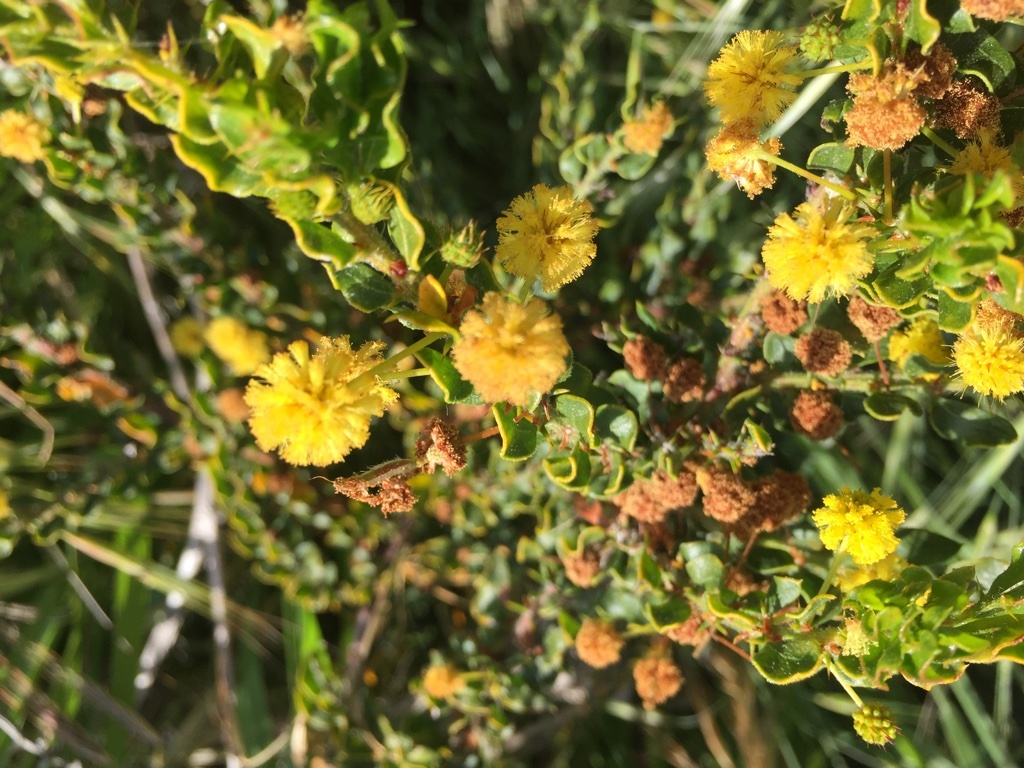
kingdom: Plantae
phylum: Tracheophyta
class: Magnoliopsida
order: Fabales
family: Fabaceae
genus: Acacia
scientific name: Acacia paradoxa
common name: Paradox acacia
